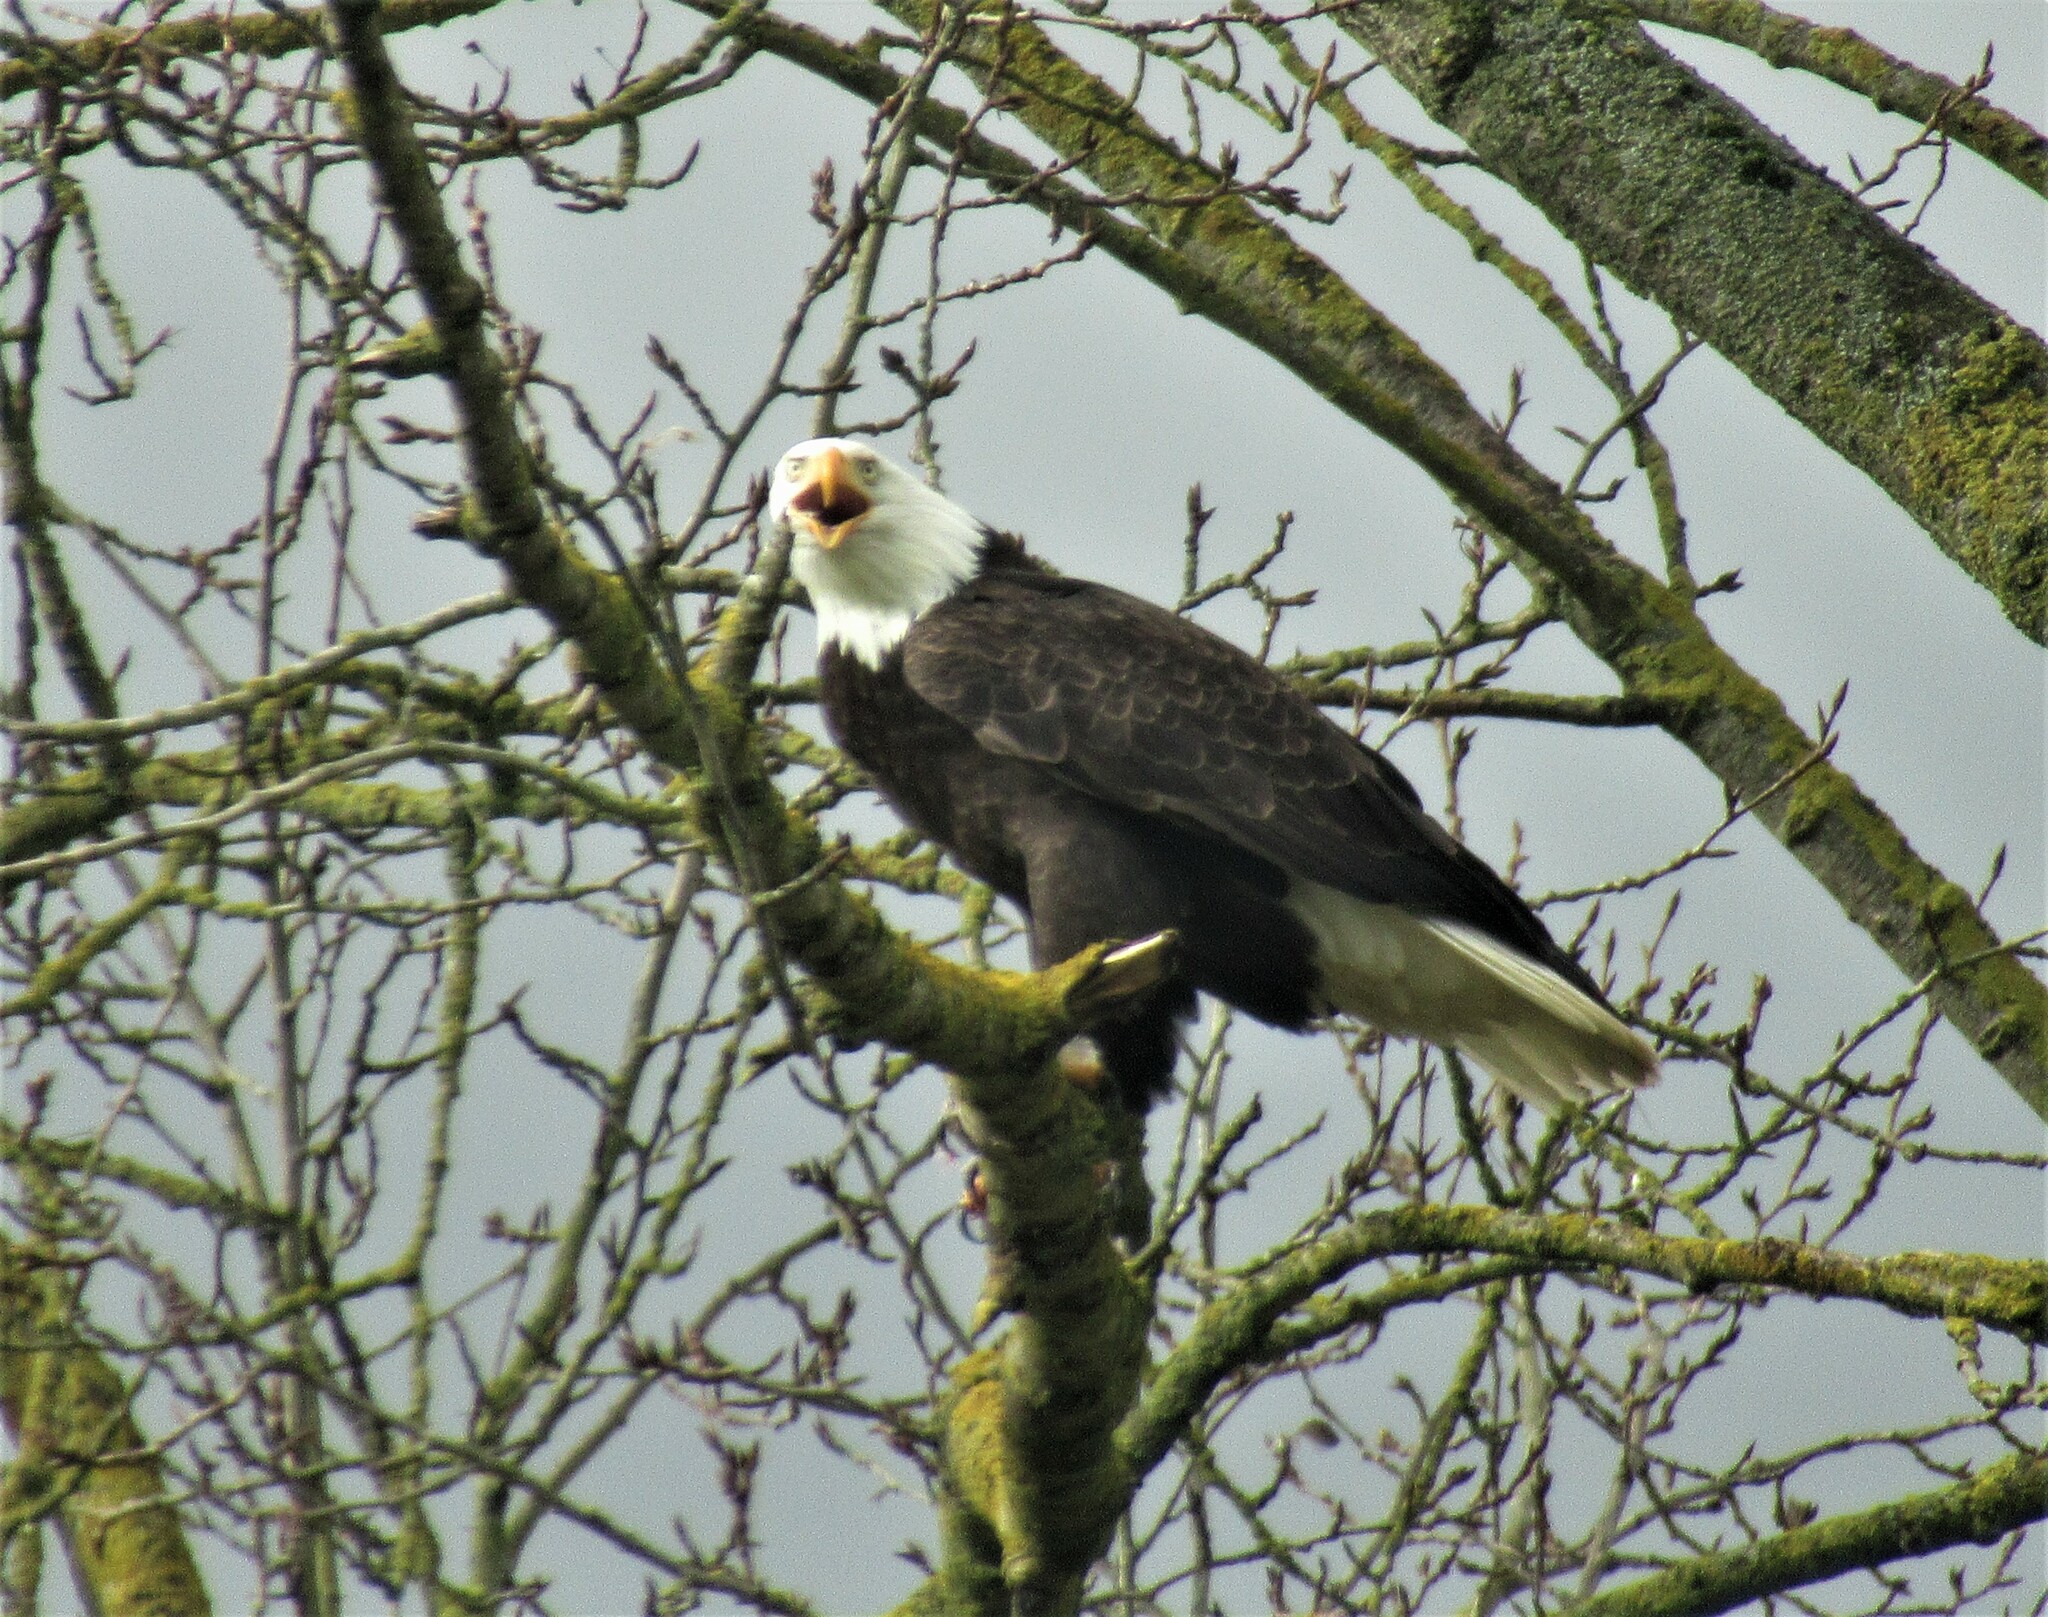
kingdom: Animalia
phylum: Chordata
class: Aves
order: Accipitriformes
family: Accipitridae
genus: Haliaeetus
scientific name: Haliaeetus leucocephalus
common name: Bald eagle
